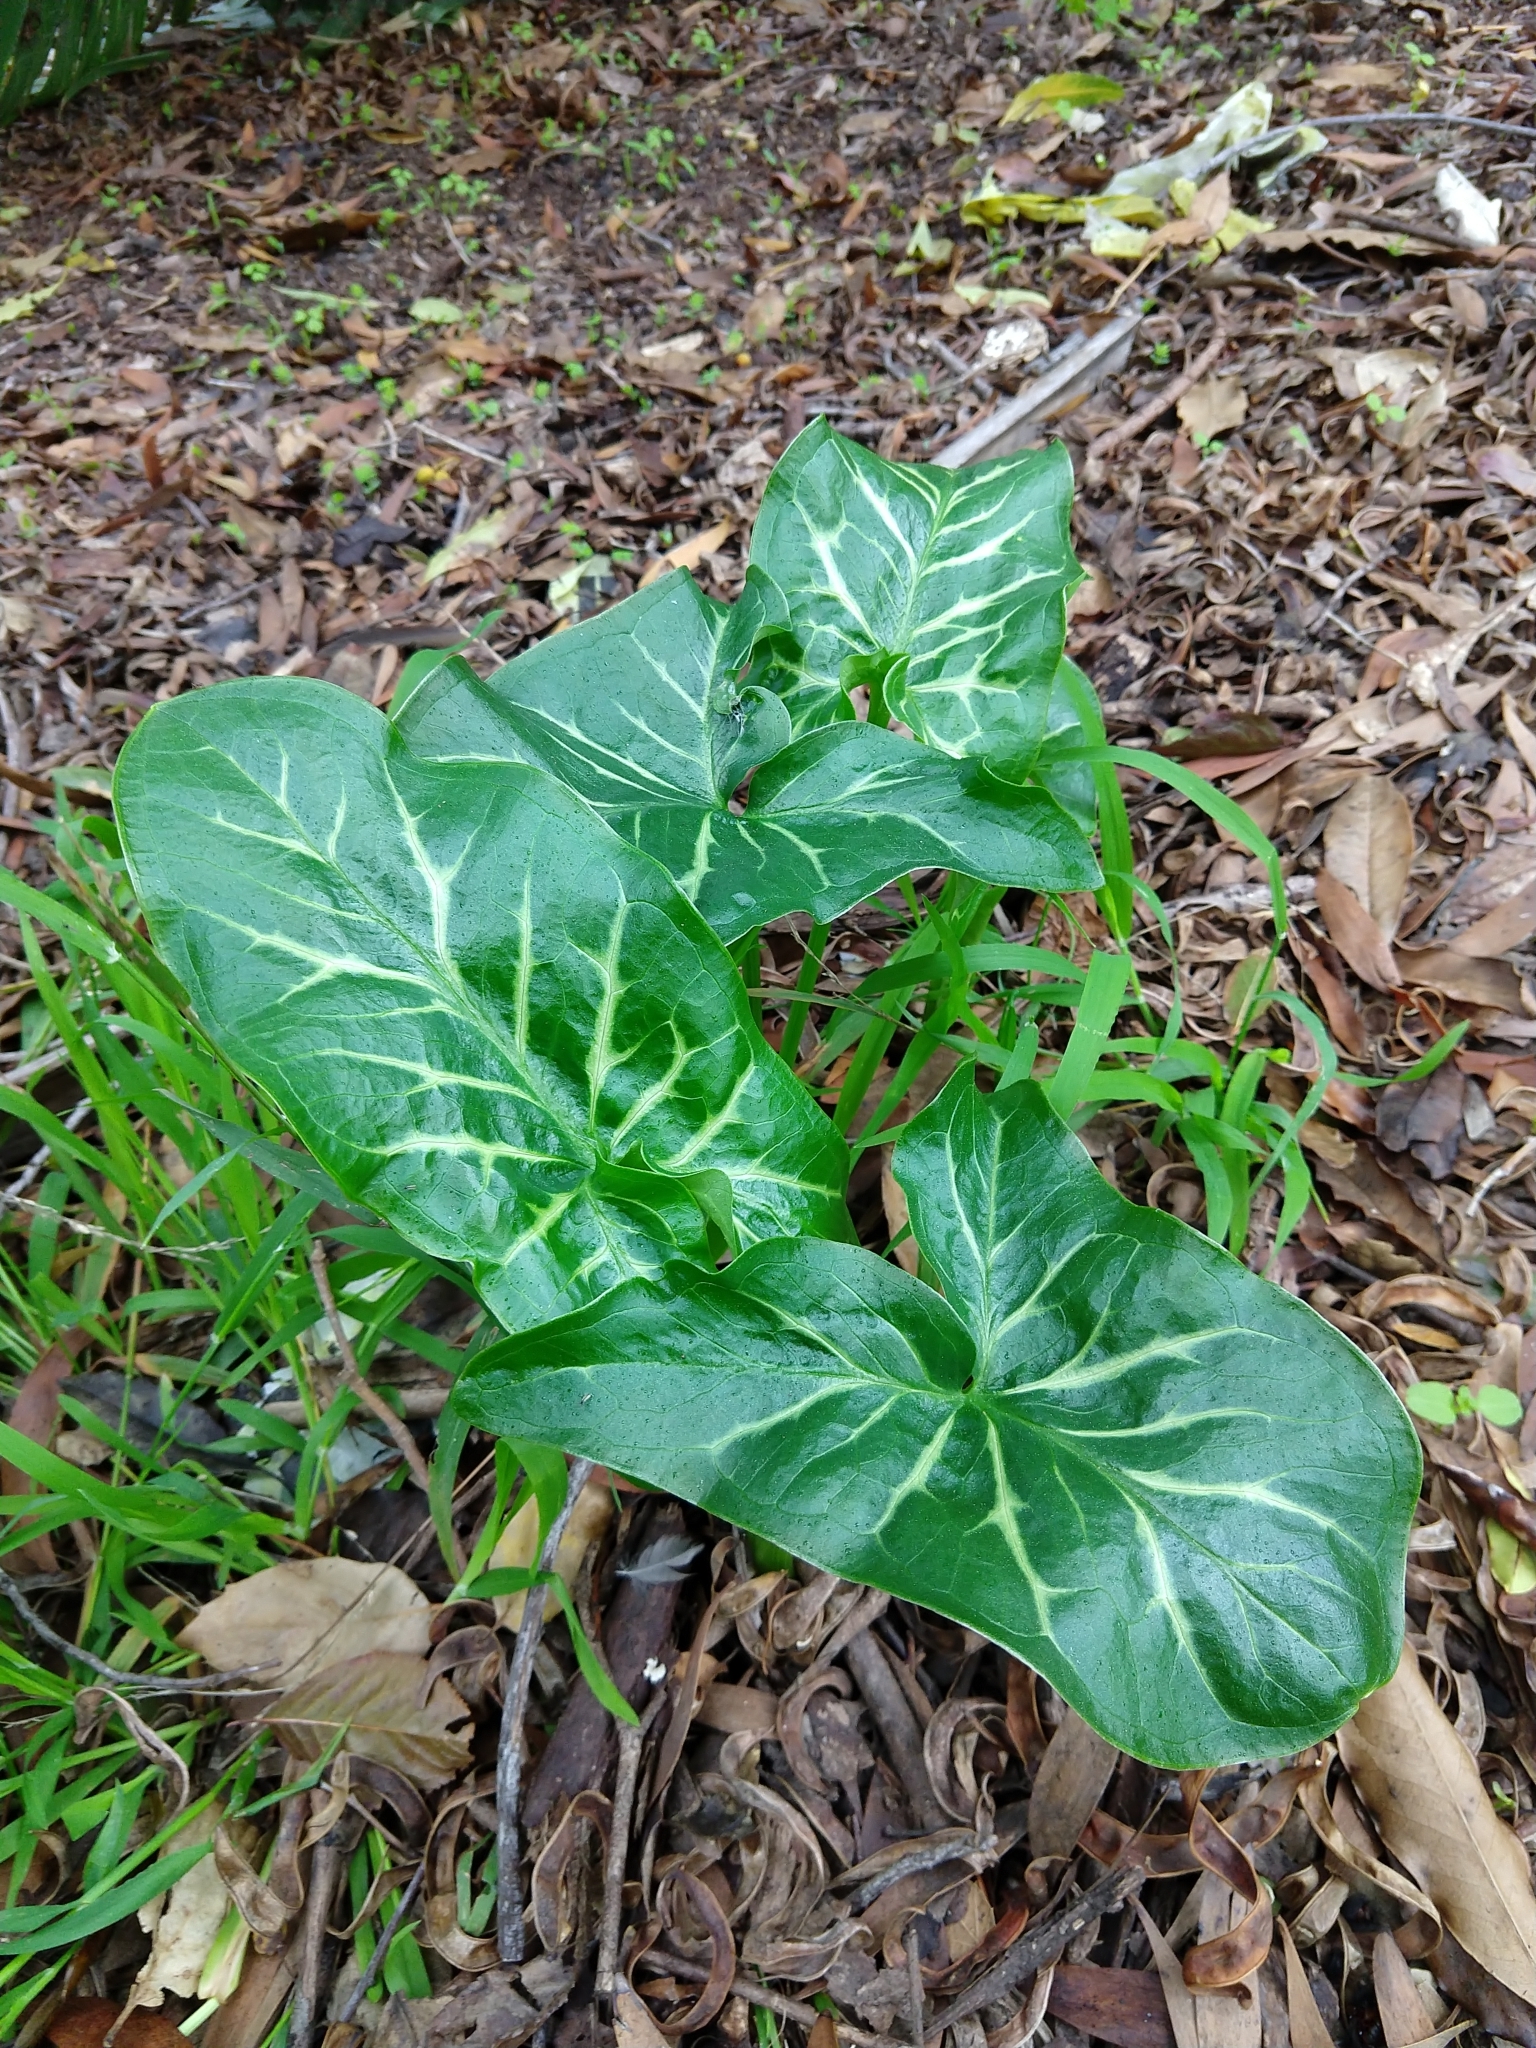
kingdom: Plantae
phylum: Tracheophyta
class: Liliopsida
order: Alismatales
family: Araceae
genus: Arum
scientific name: Arum italicum
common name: Italian lords-and-ladies
